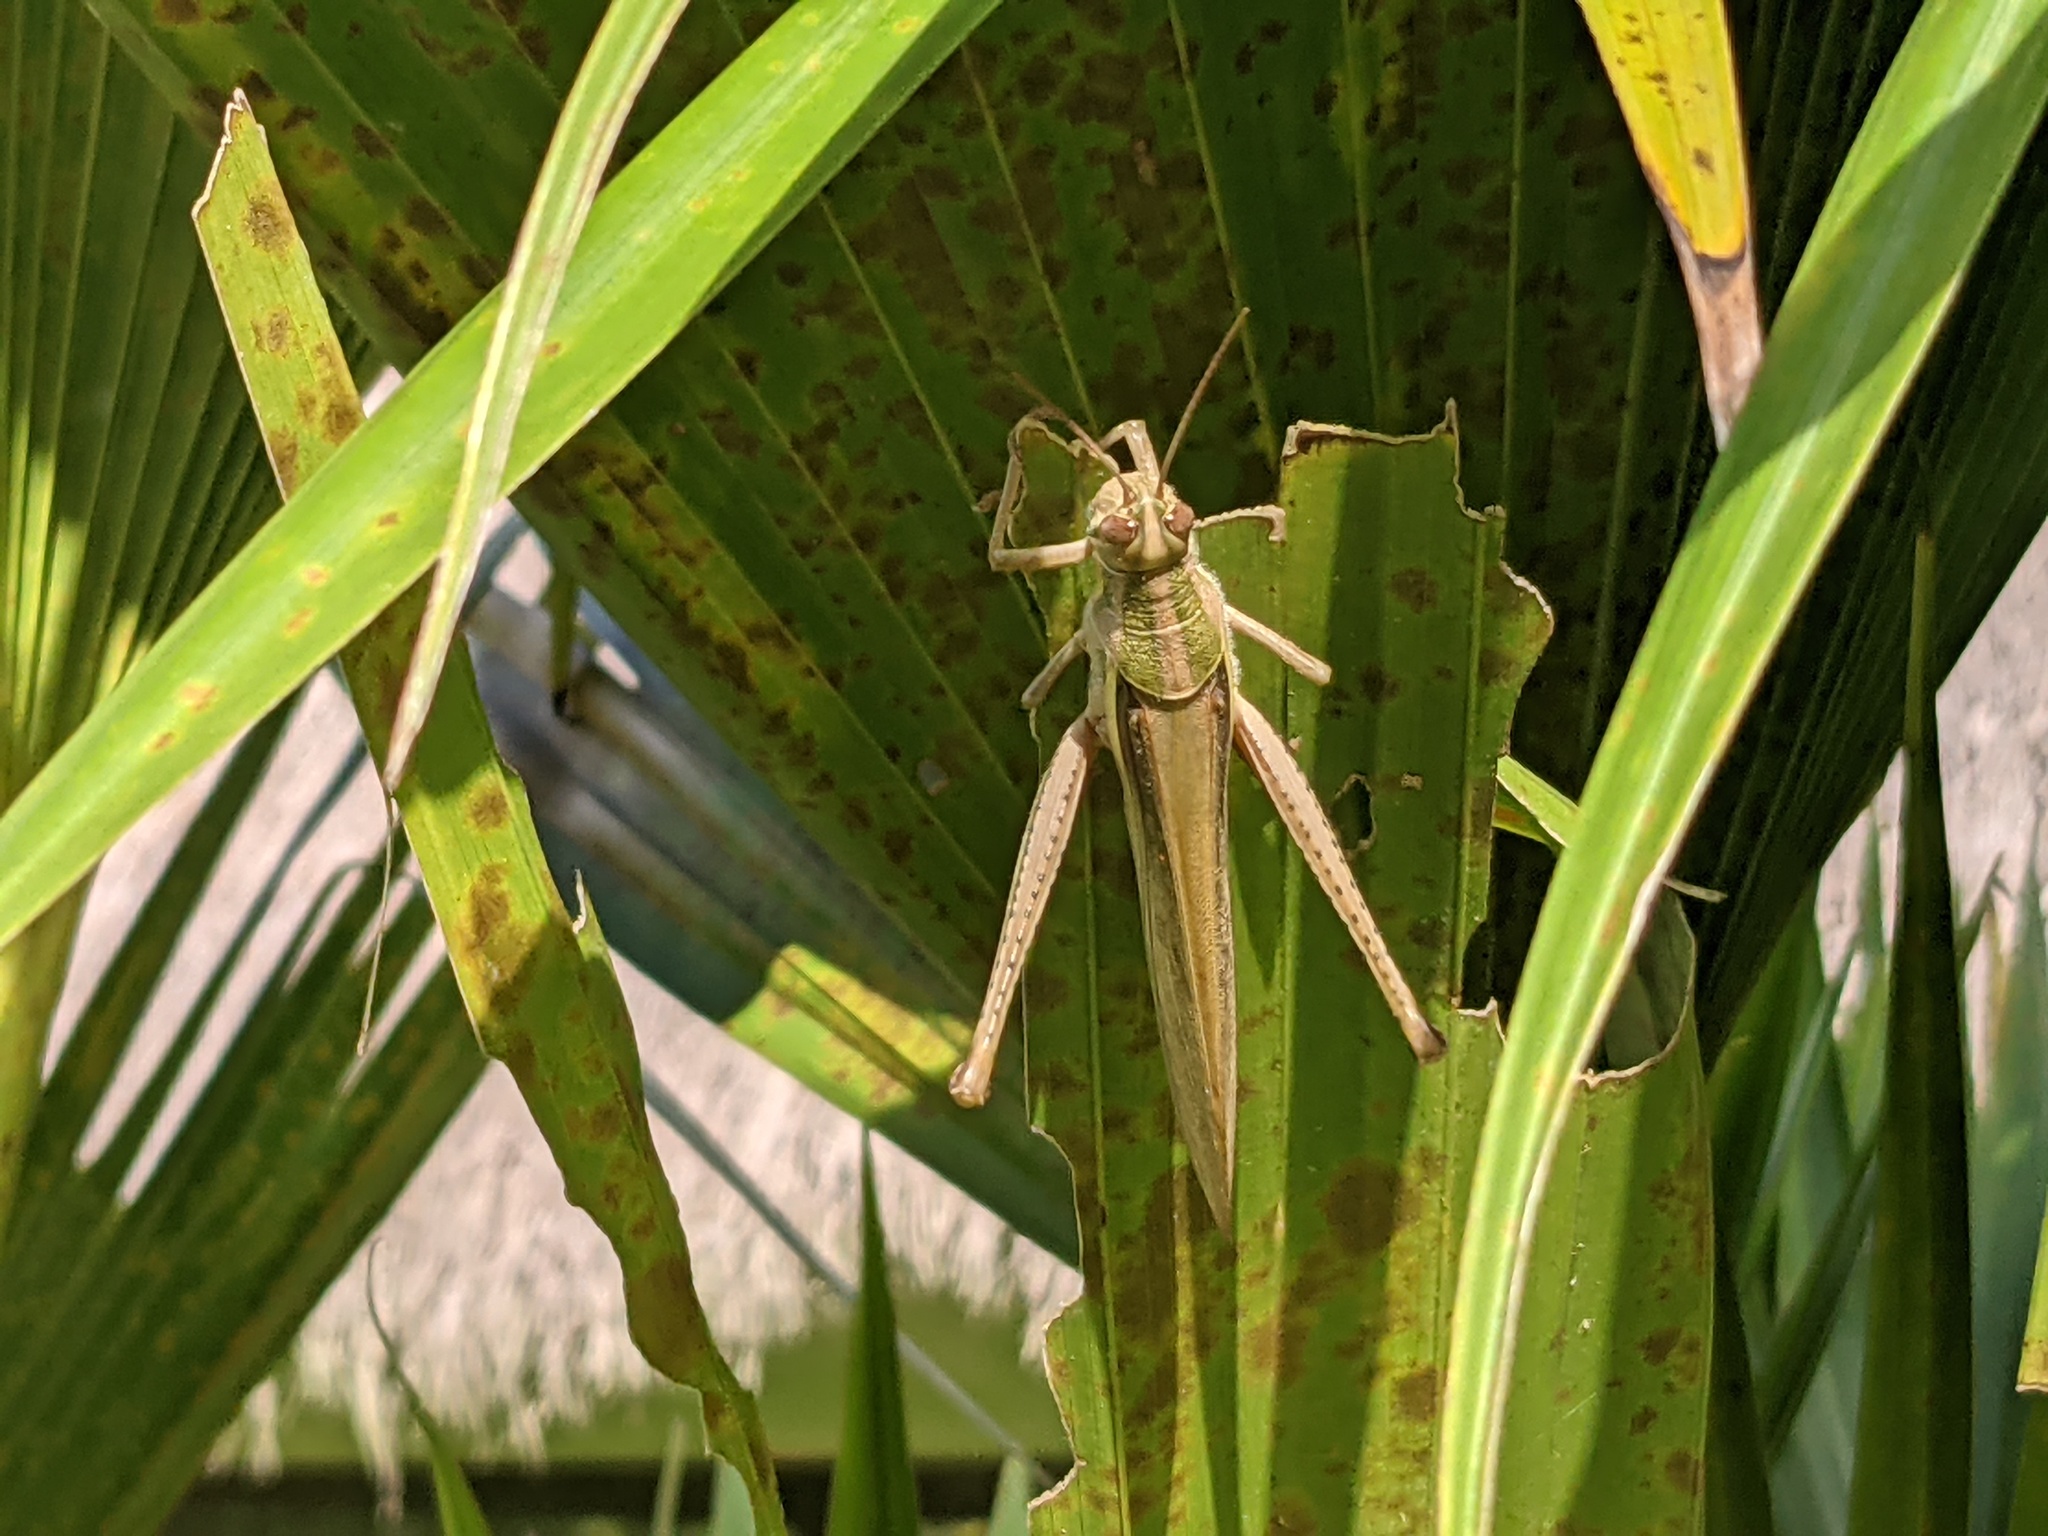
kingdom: Animalia
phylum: Arthropoda
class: Insecta
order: Orthoptera
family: Acrididae
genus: Schistocerca
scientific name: Schistocerca pallens
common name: Bird grasshopper
